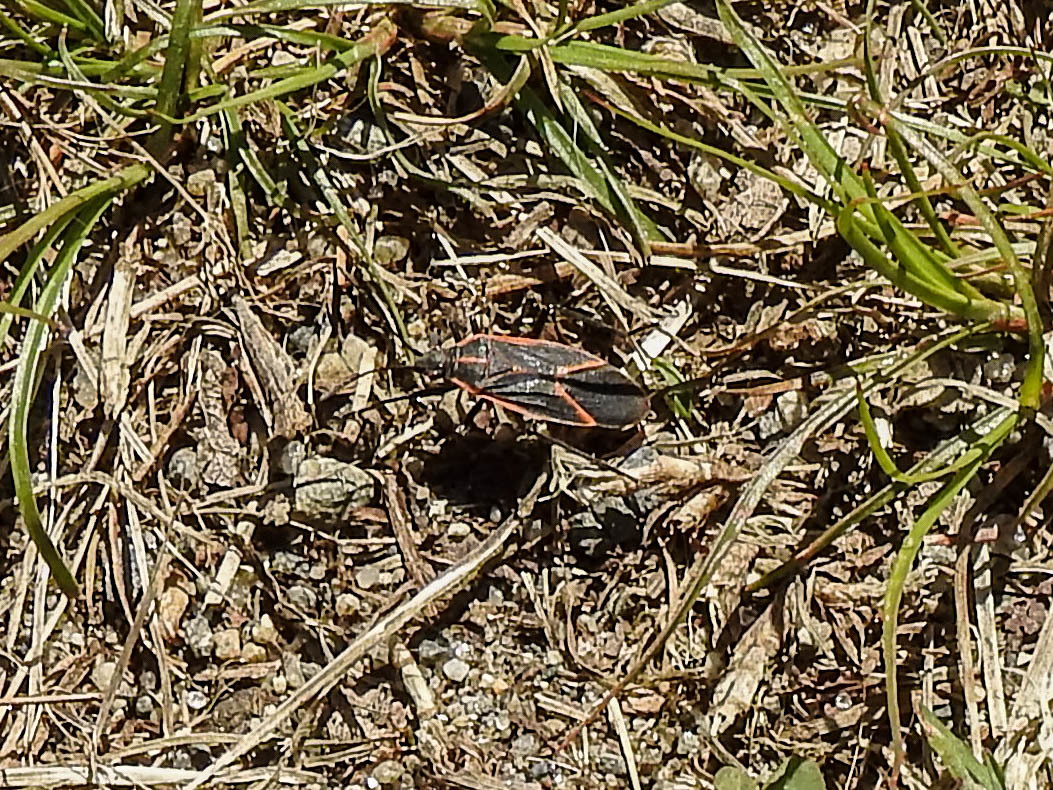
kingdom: Animalia
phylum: Arthropoda
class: Insecta
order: Hemiptera
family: Rhopalidae
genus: Boisea
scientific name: Boisea trivittata
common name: Boxelder bug
